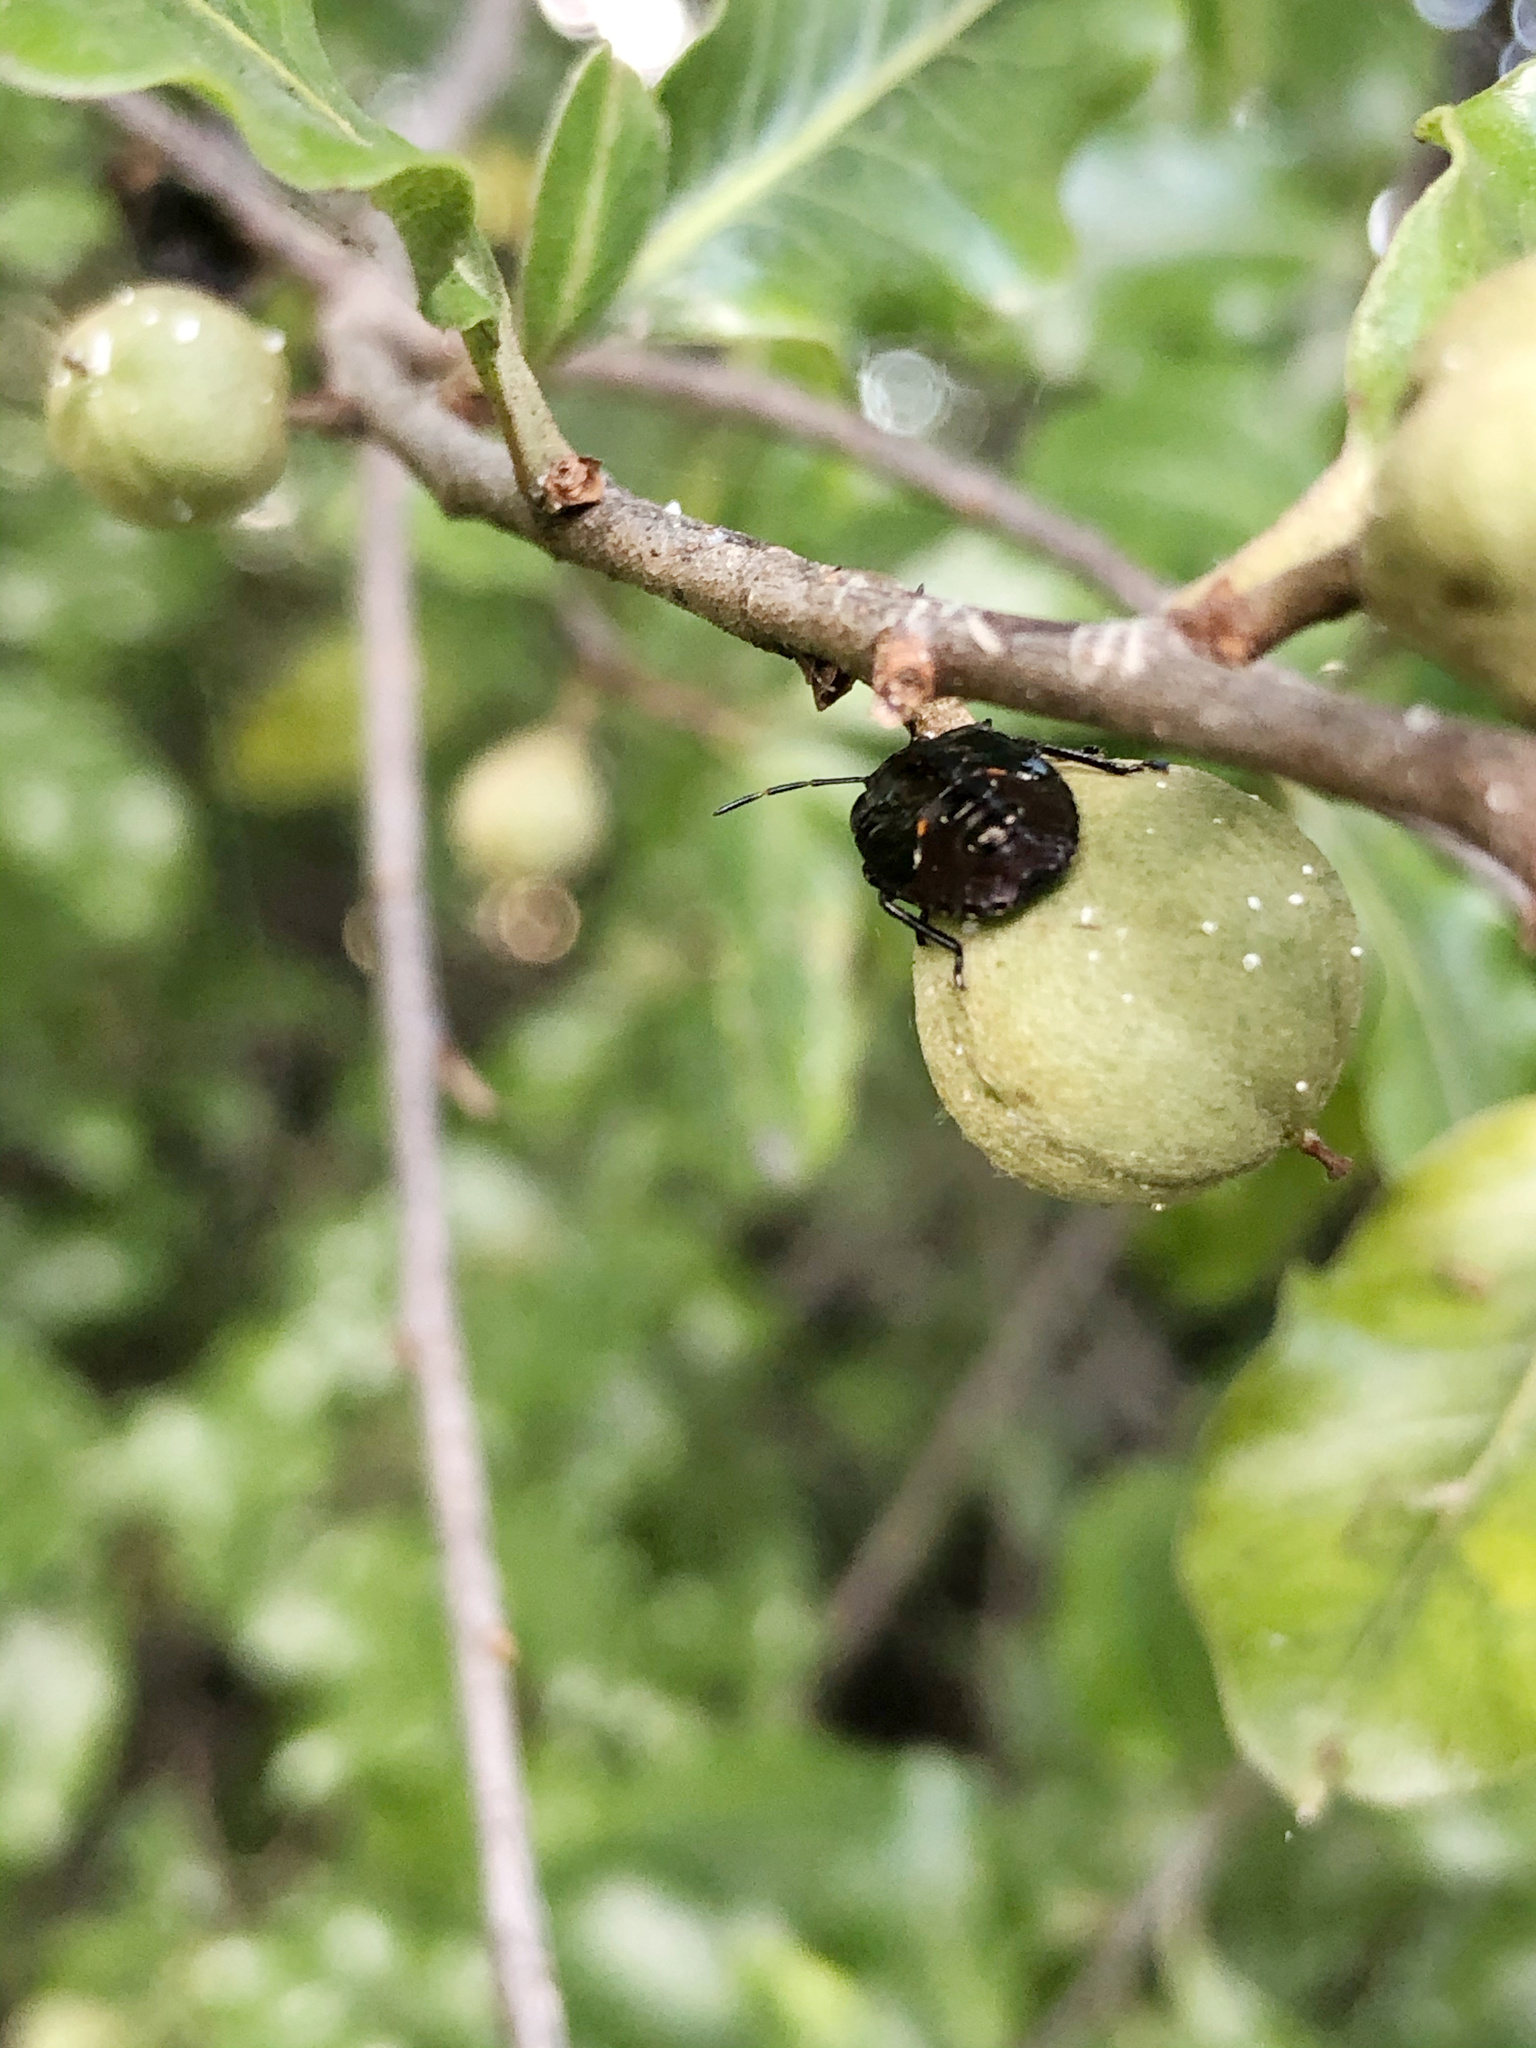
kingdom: Animalia
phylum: Arthropoda
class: Insecta
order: Hemiptera
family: Pentatomidae
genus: Monteithiella
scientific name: Monteithiella
